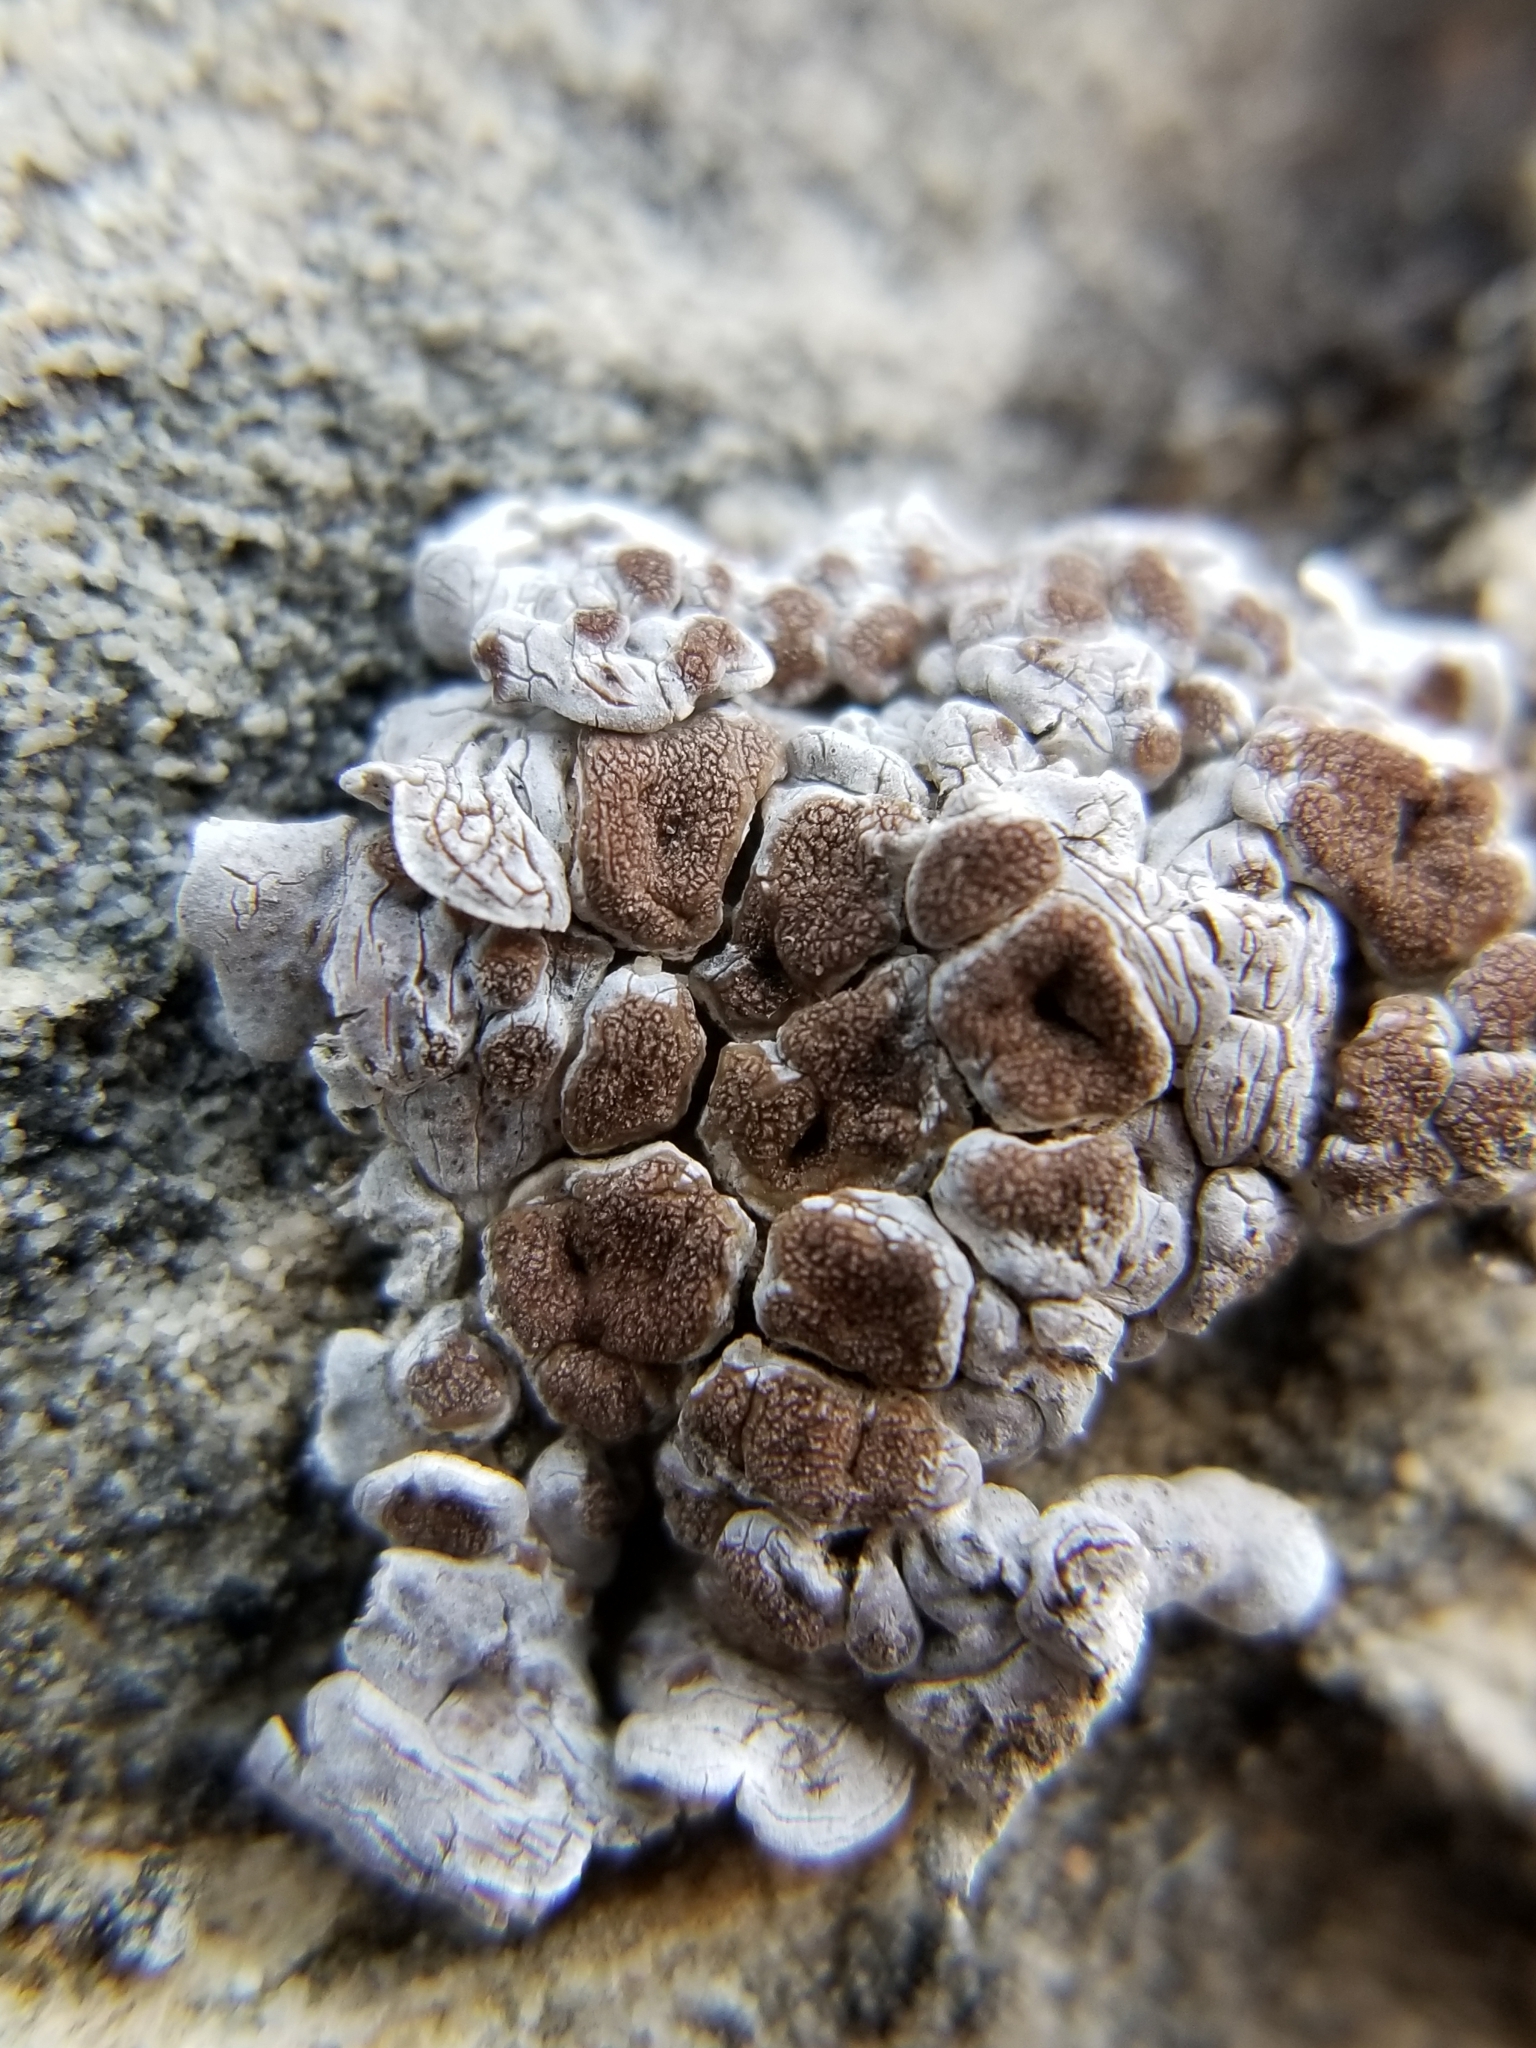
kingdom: Fungi
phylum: Ascomycota
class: Lecanoromycetes
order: Acarosporales
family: Acarosporaceae
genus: Glypholecia
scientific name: Glypholecia scabra
